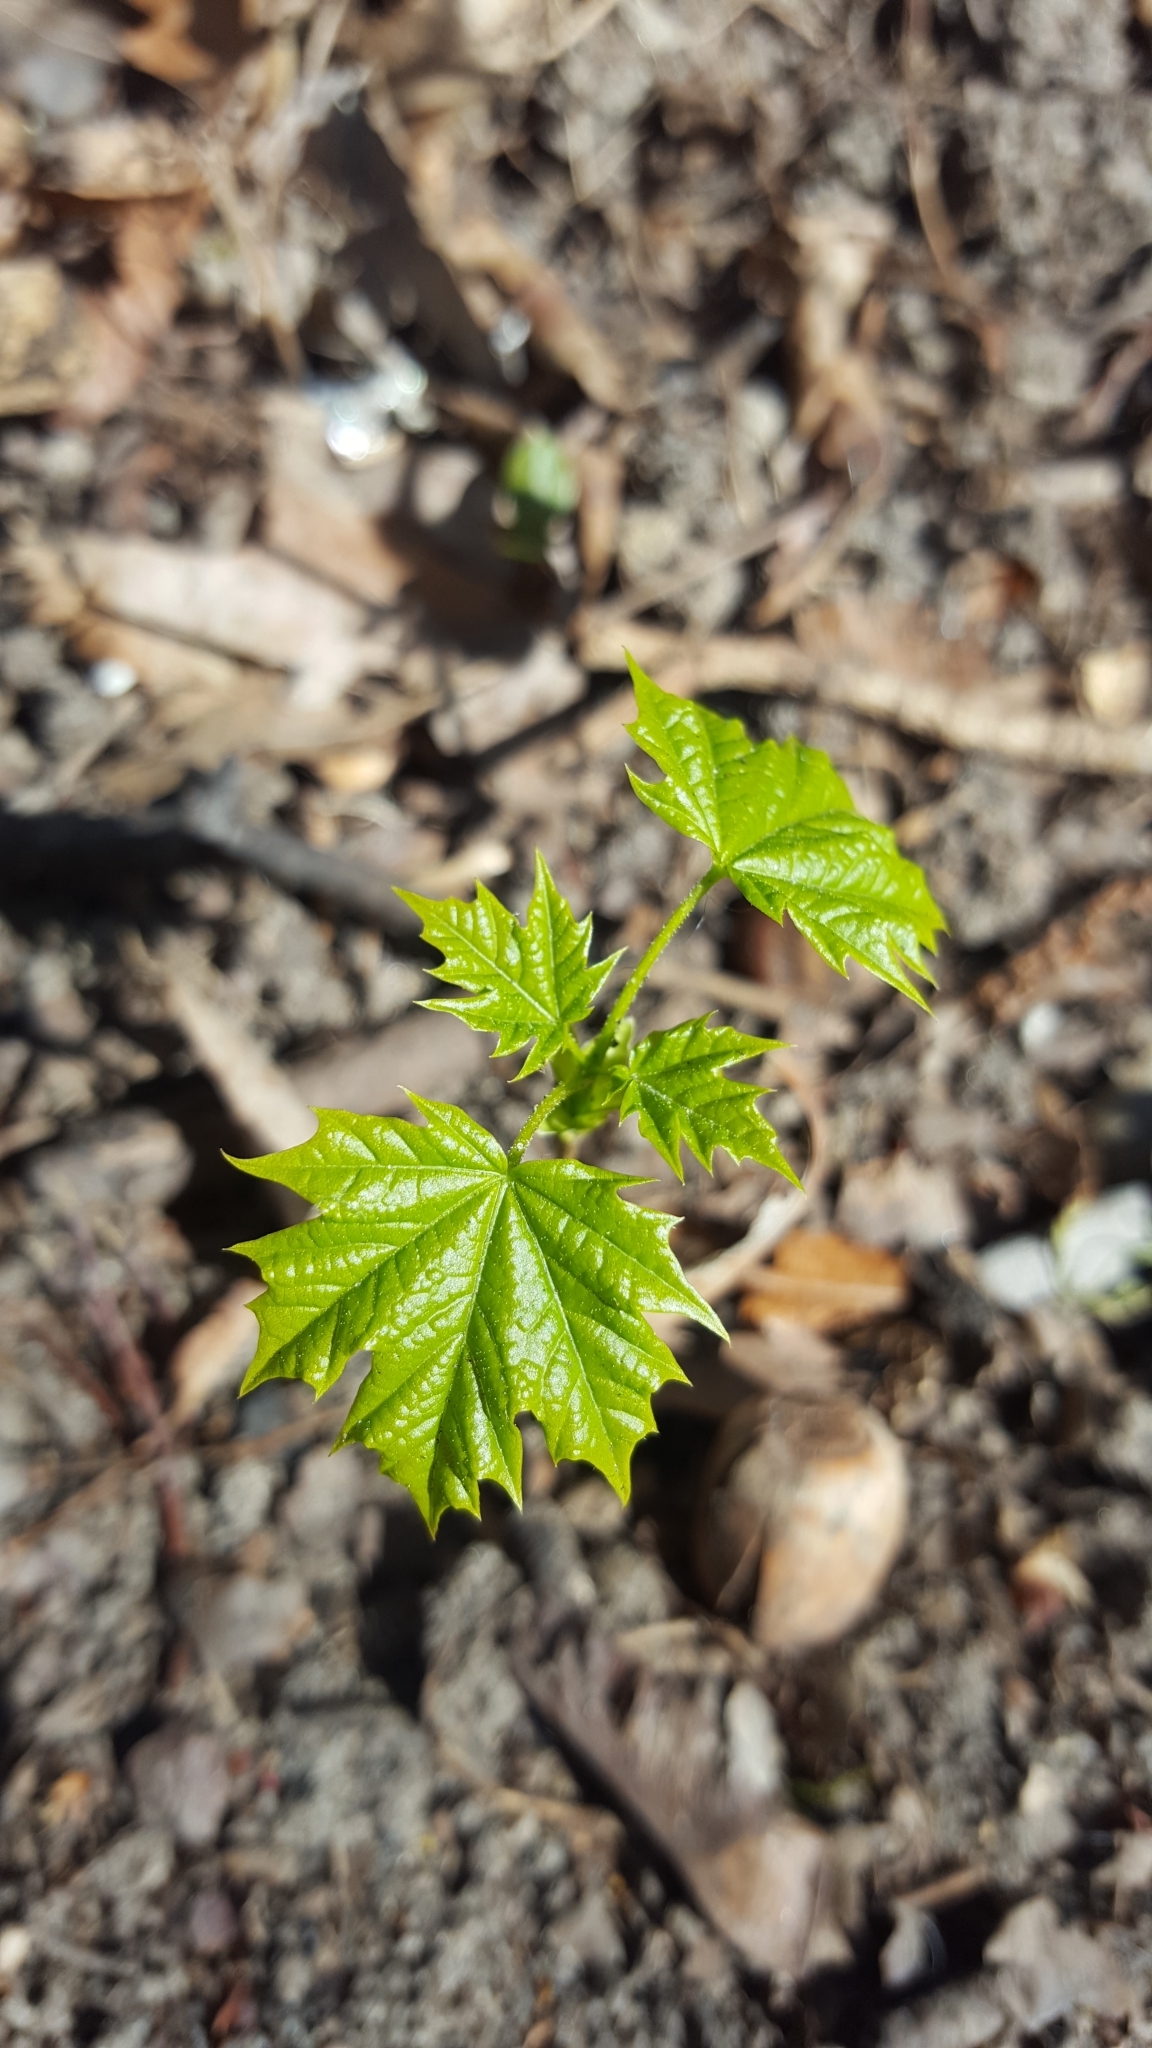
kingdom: Plantae
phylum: Tracheophyta
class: Magnoliopsida
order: Sapindales
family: Sapindaceae
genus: Acer
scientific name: Acer platanoides
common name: Norway maple
